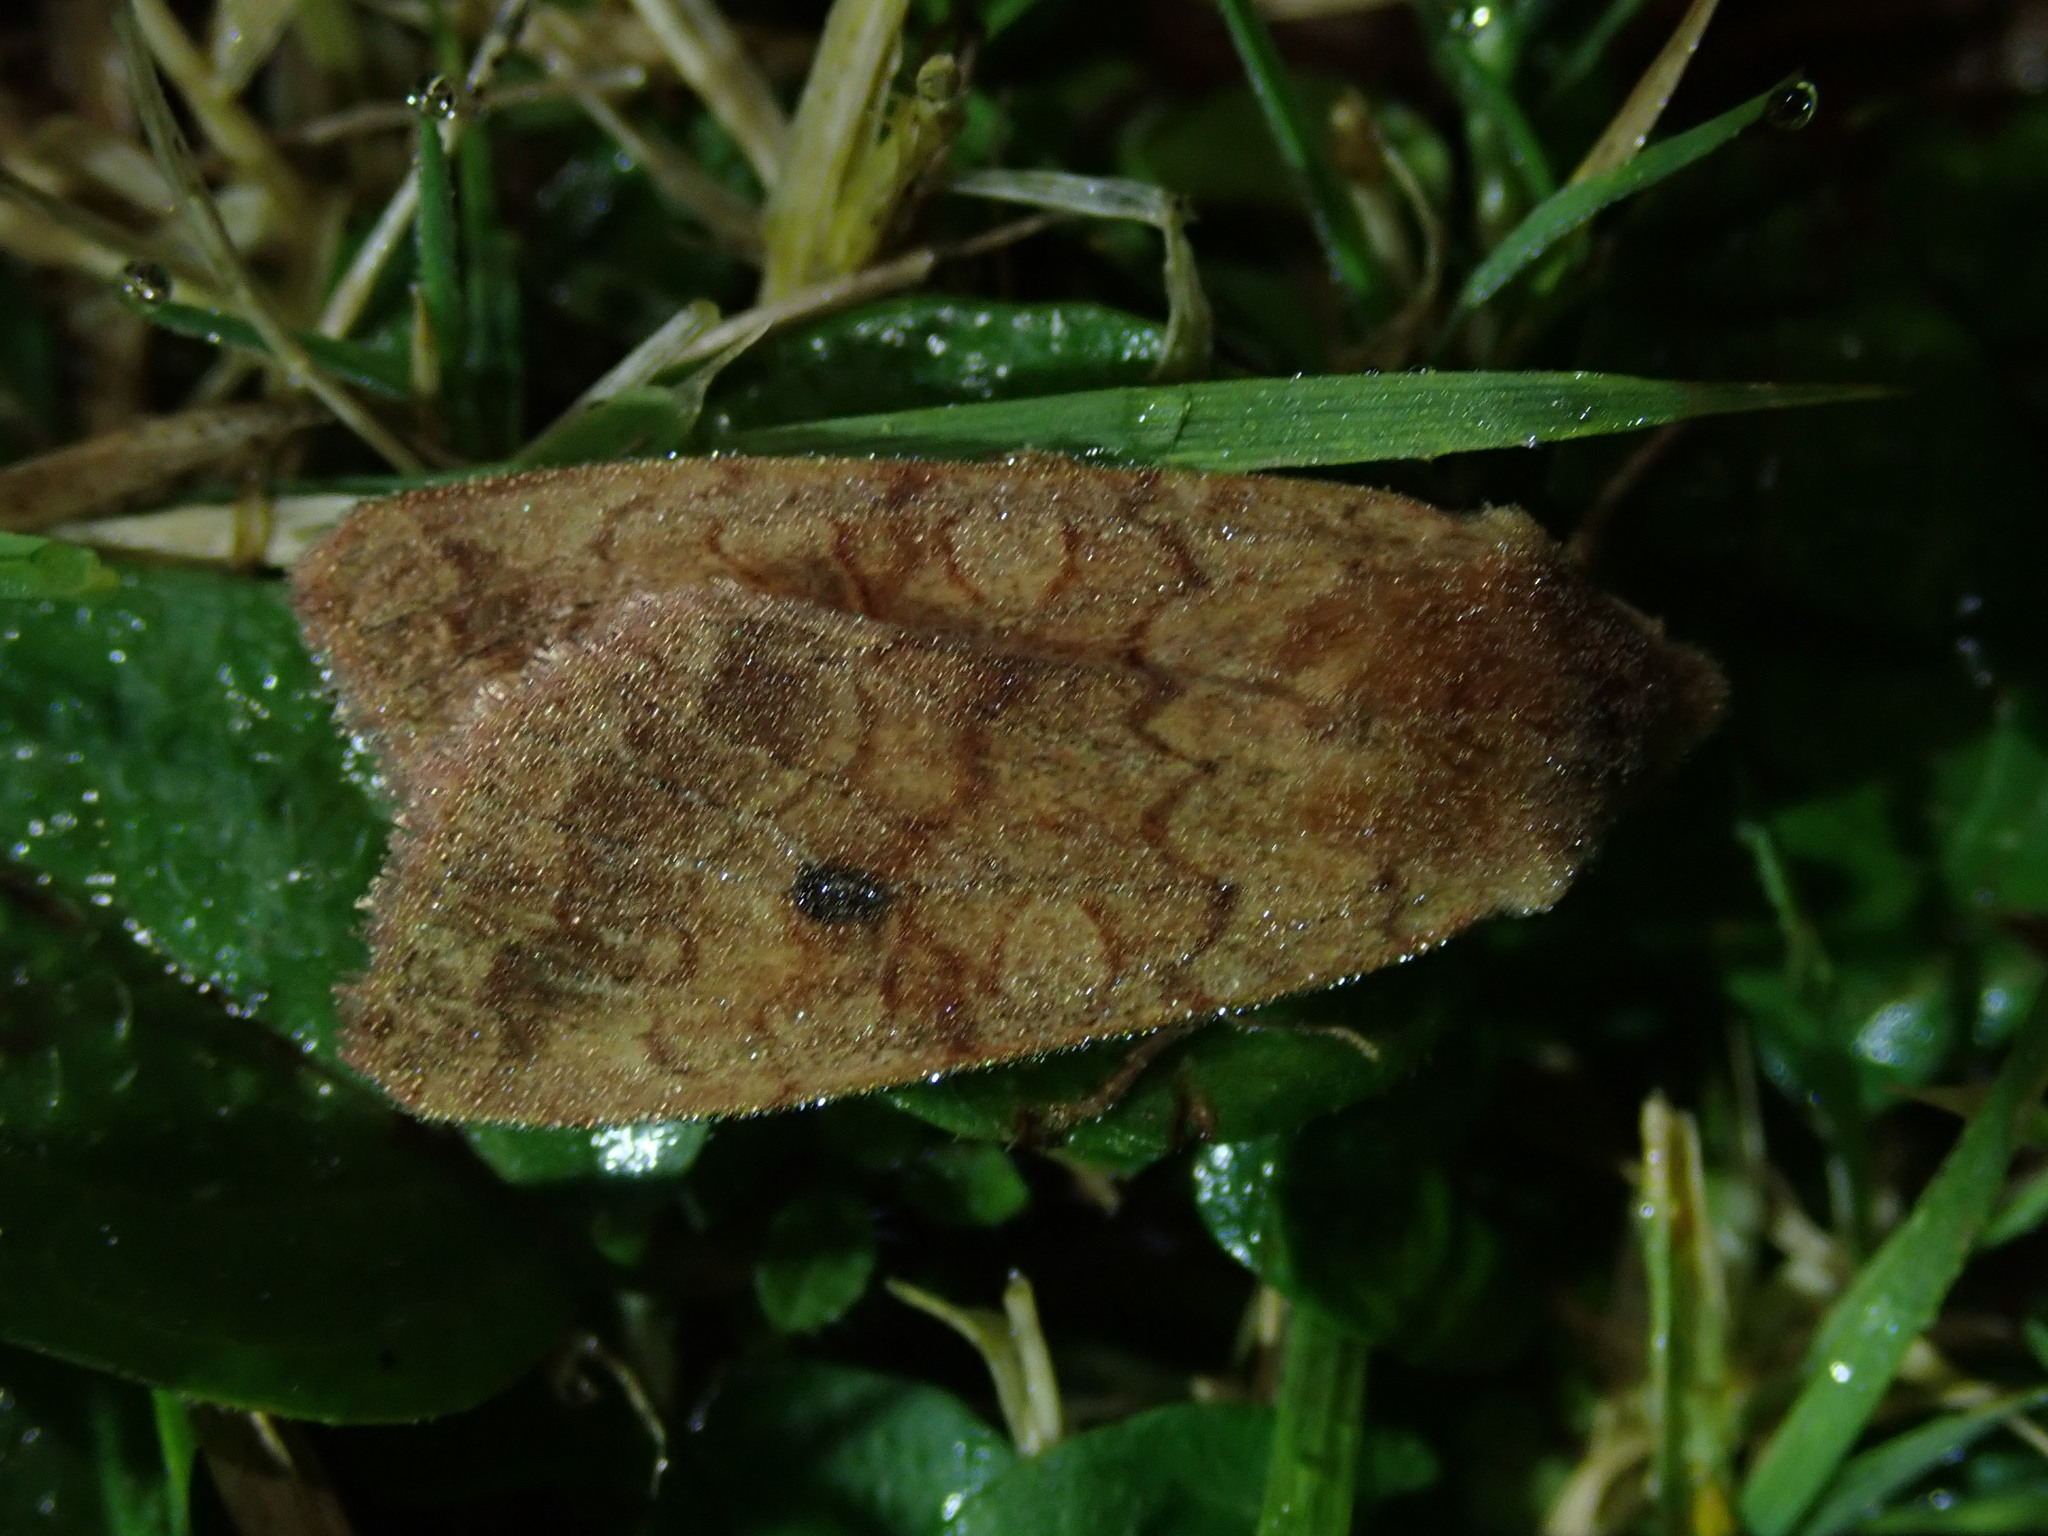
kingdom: Animalia
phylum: Arthropoda
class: Insecta
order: Lepidoptera
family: Noctuidae
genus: Sunira
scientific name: Sunira circellaris
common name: Brick
